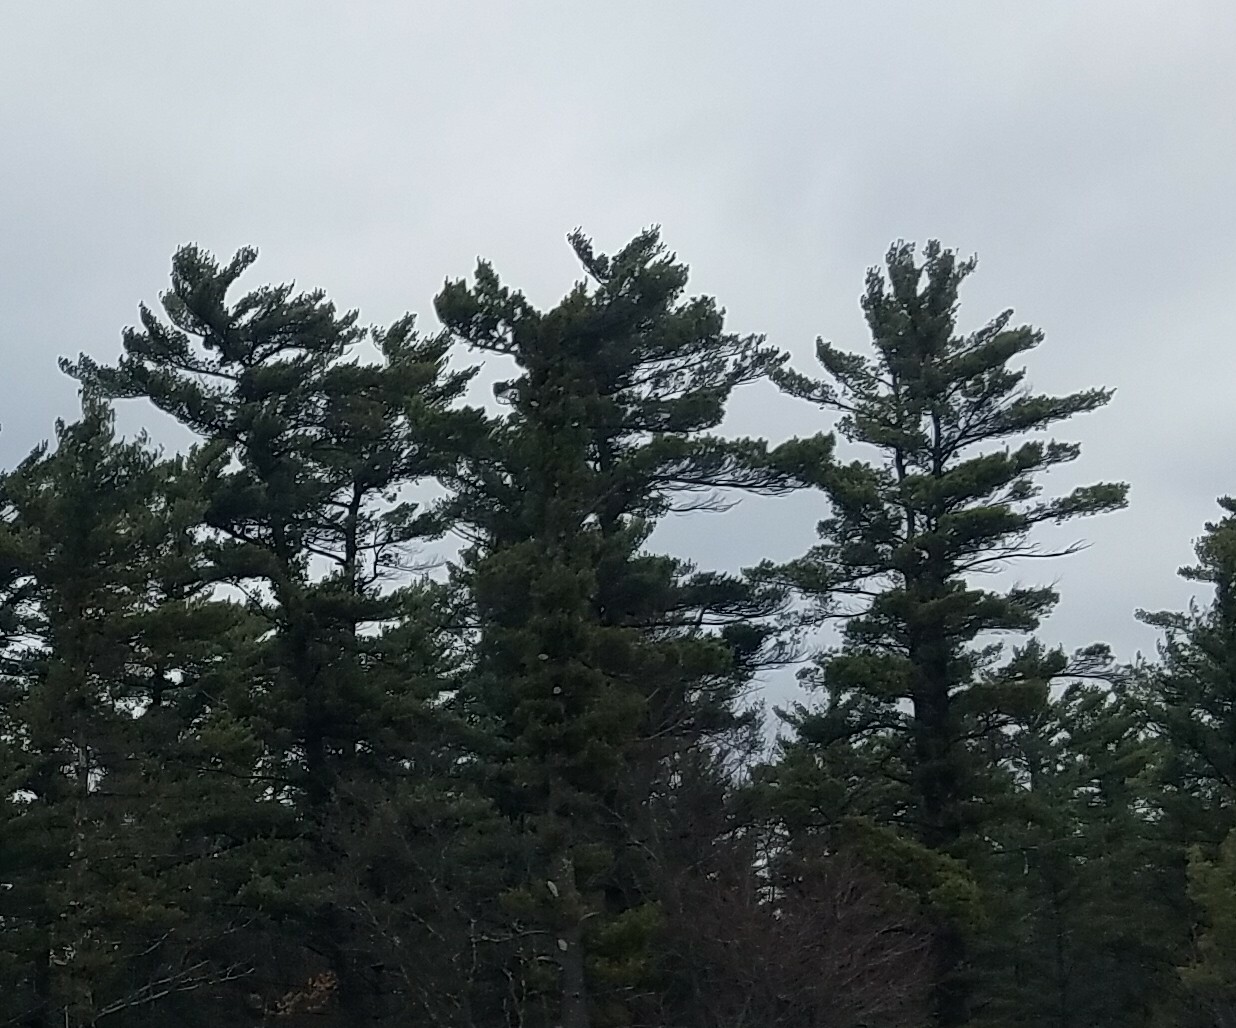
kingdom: Plantae
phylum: Tracheophyta
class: Pinopsida
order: Pinales
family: Pinaceae
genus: Pinus
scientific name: Pinus strobus
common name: Weymouth pine
